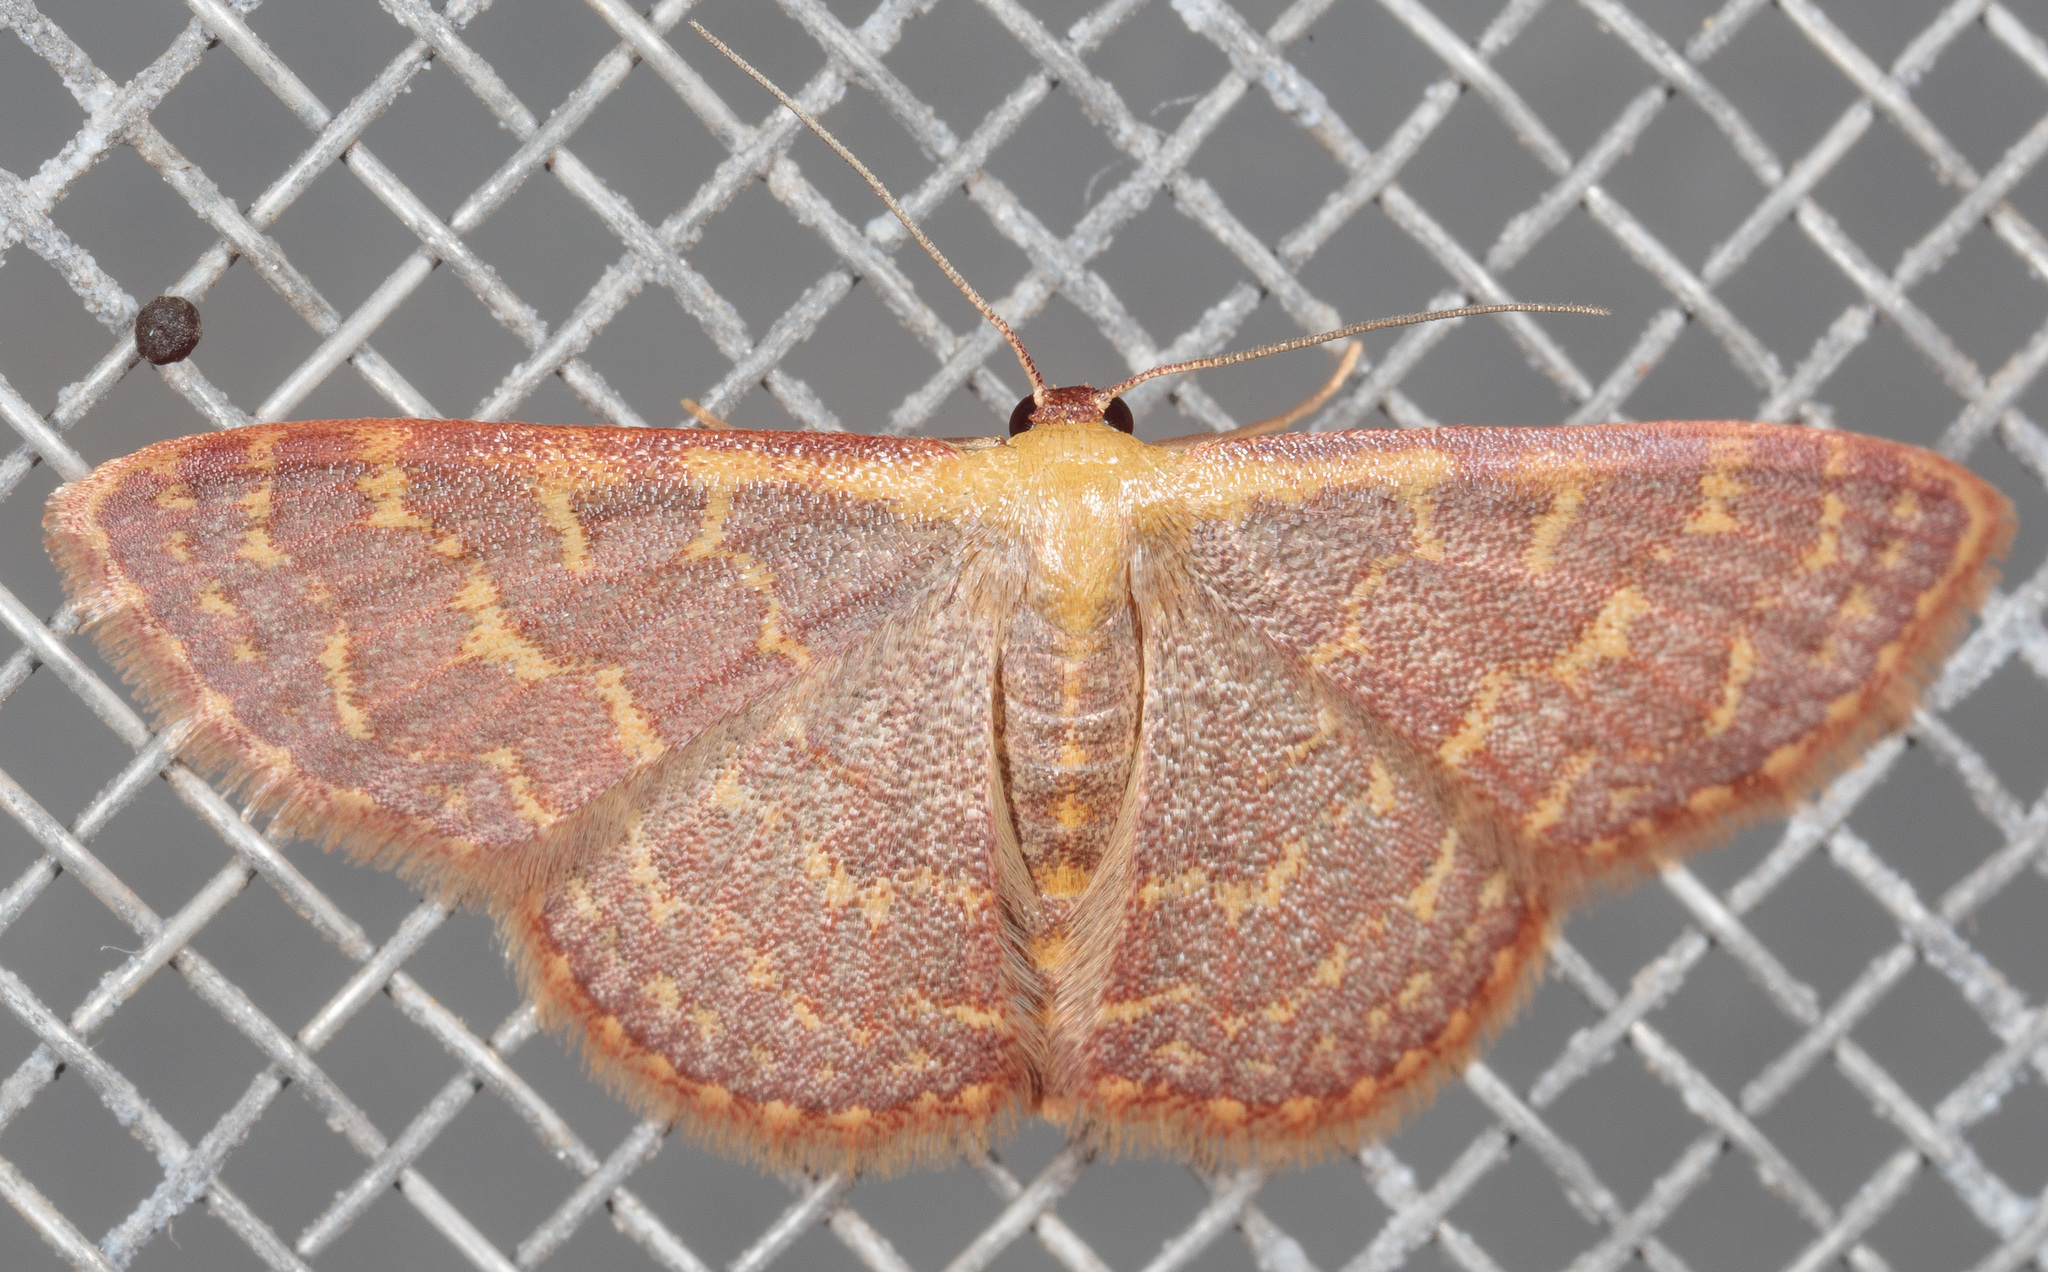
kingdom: Animalia
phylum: Arthropoda
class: Insecta
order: Lepidoptera
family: Geometridae
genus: Leptostales
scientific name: Leptostales pannaria
